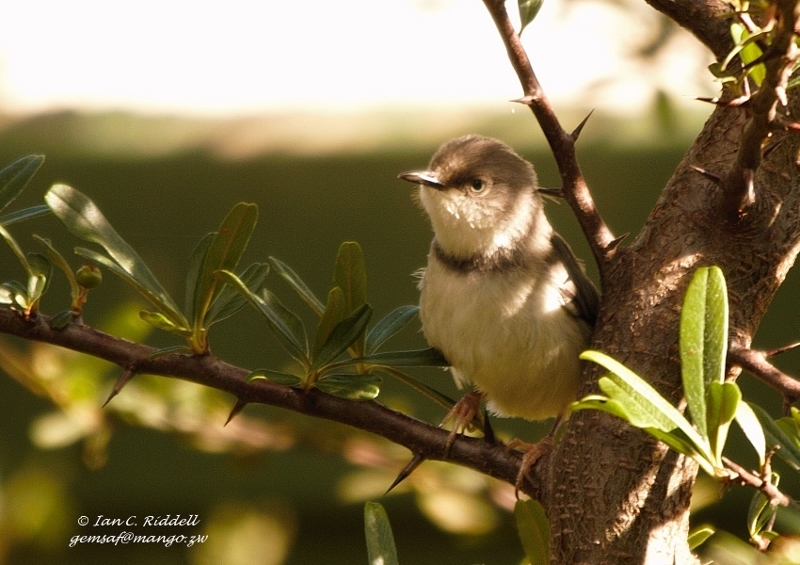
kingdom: Animalia
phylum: Chordata
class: Aves
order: Passeriformes
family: Cisticolidae
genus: Apalis
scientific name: Apalis thoracica
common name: Bar-throated apalis
